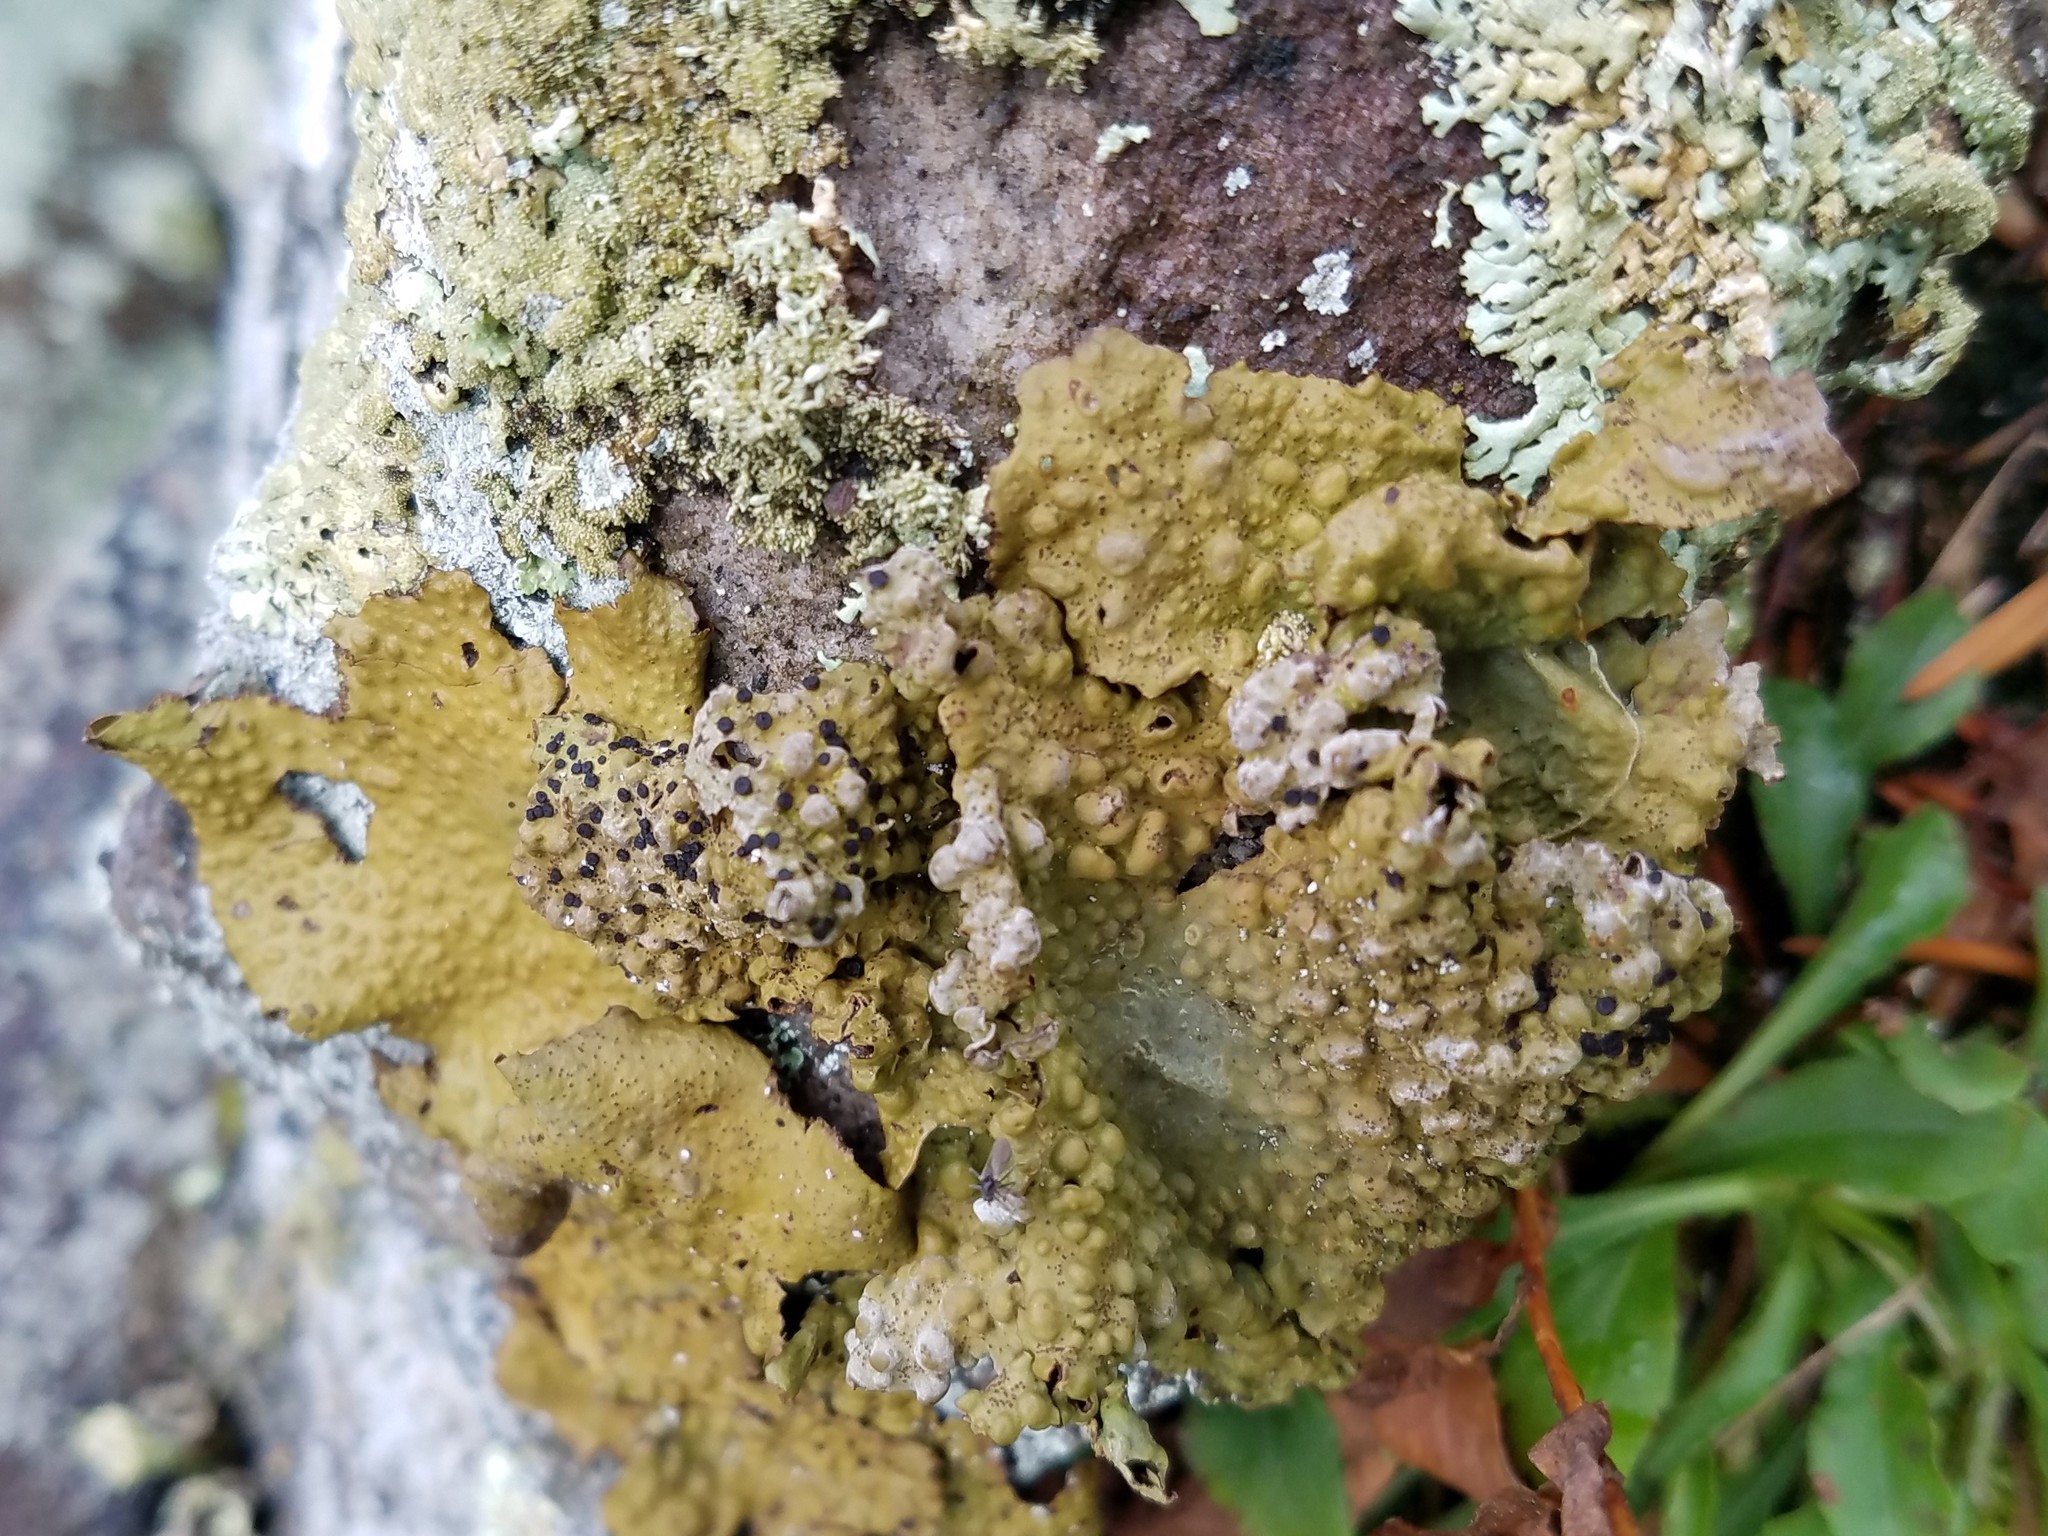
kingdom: Fungi
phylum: Ascomycota
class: Lecanoromycetes
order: Umbilicariales
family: Umbilicariaceae
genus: Lasallia
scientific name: Lasallia papulosa
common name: Common toadskin lichen
